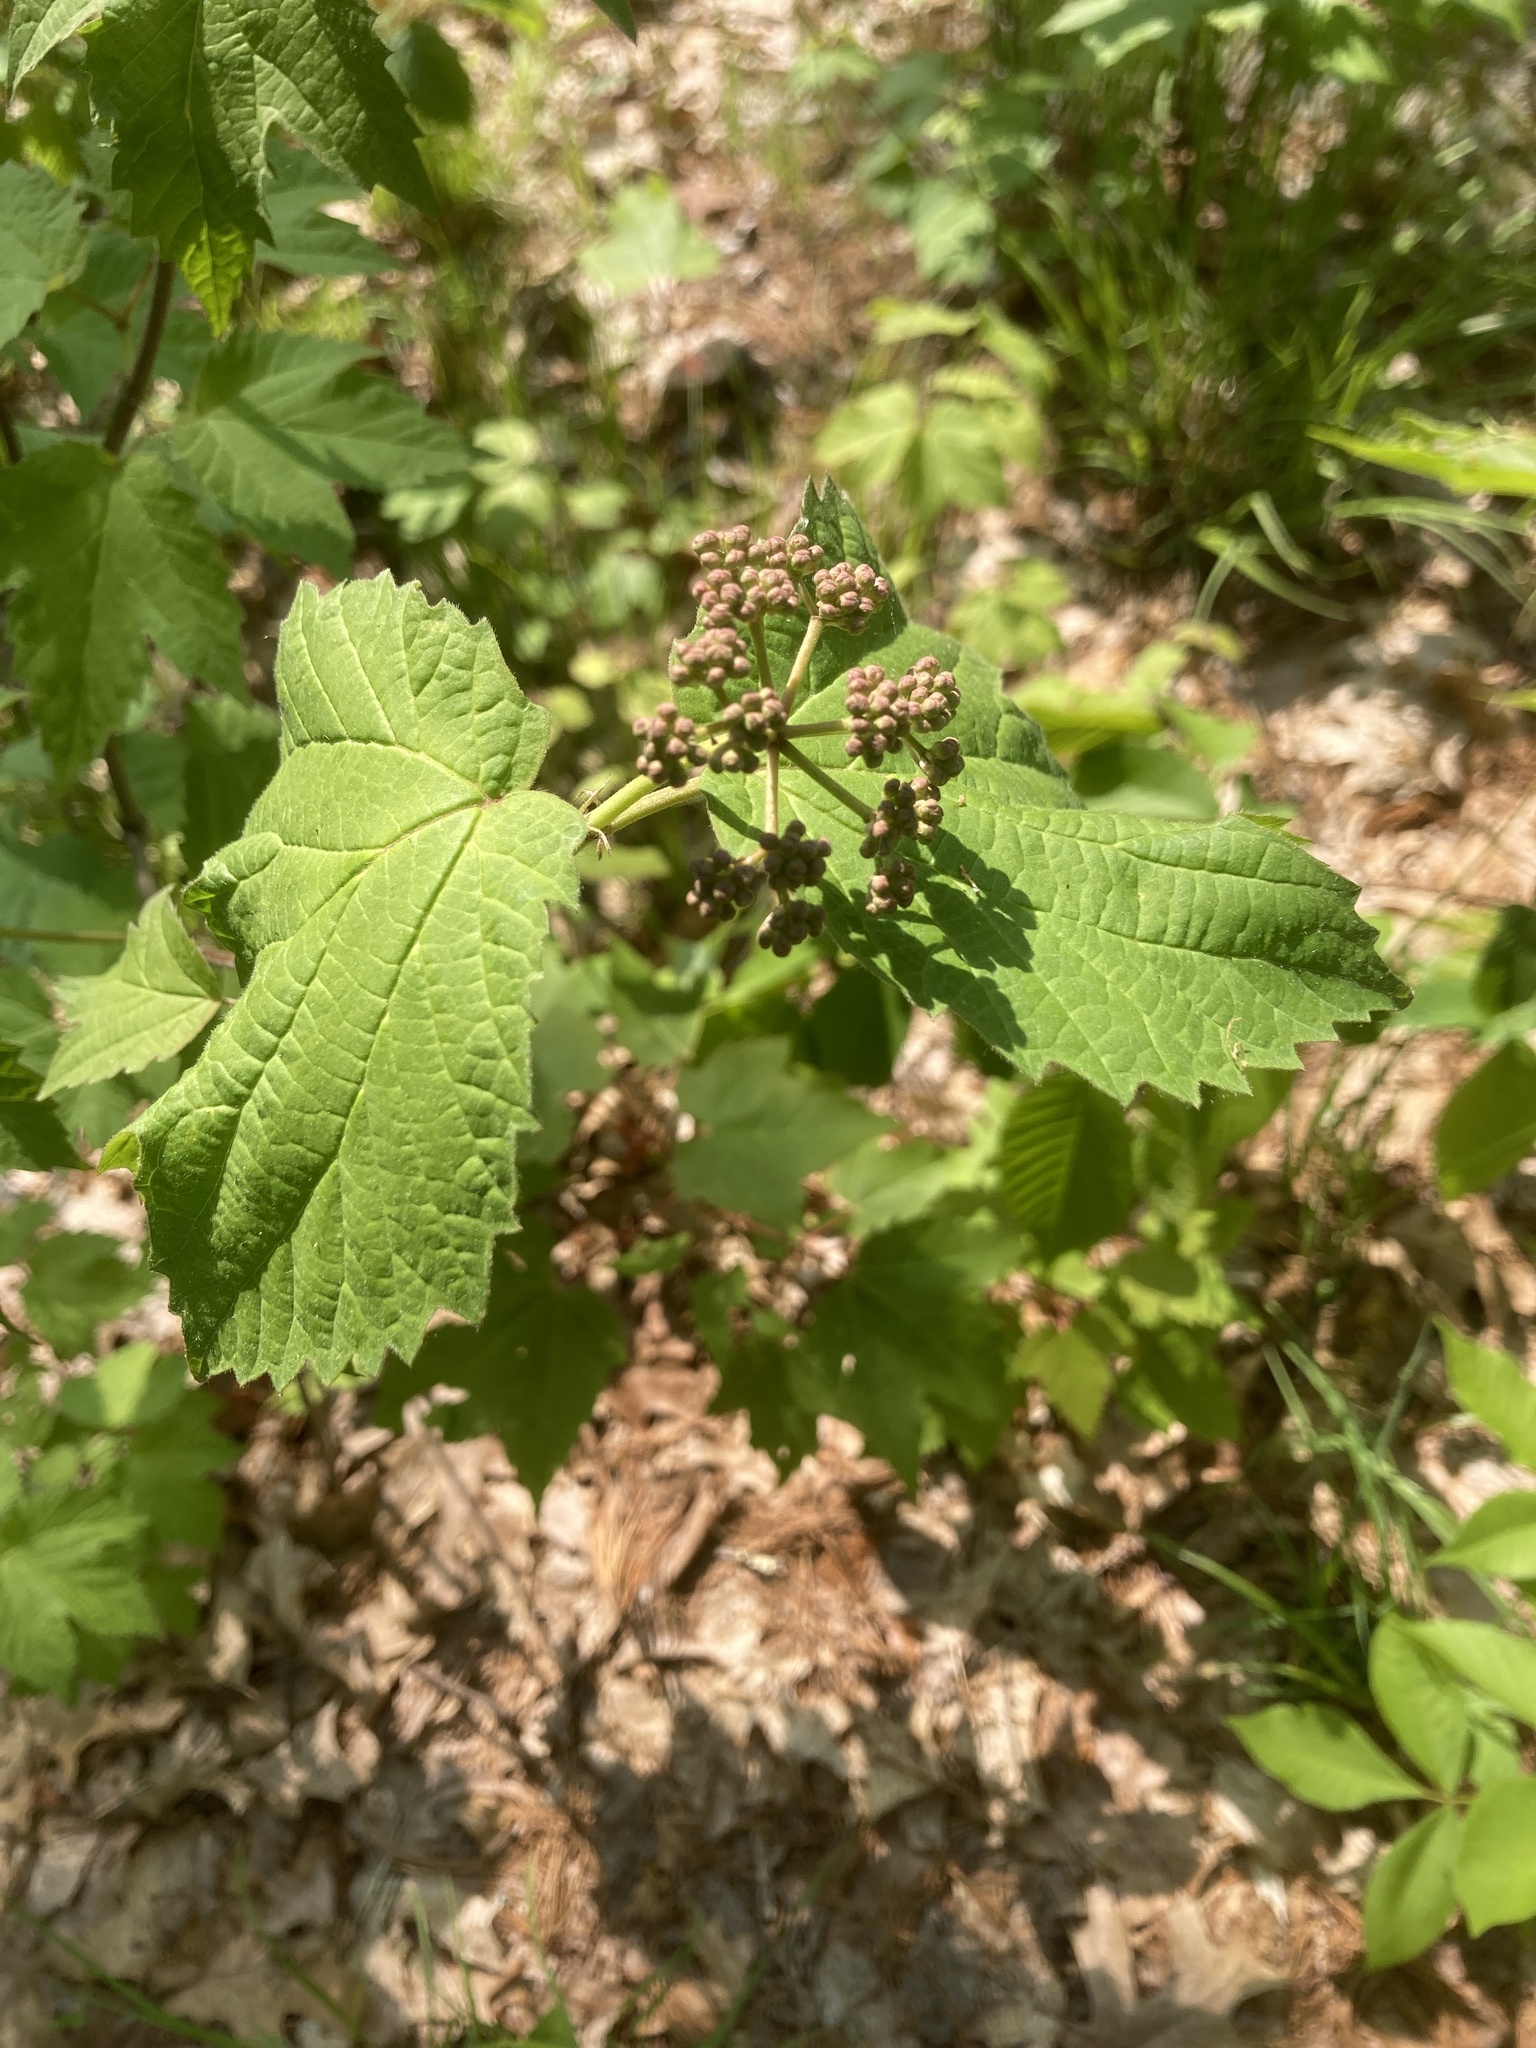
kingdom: Plantae
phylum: Tracheophyta
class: Magnoliopsida
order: Dipsacales
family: Viburnaceae
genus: Viburnum
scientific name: Viburnum acerifolium
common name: Dockmackie
